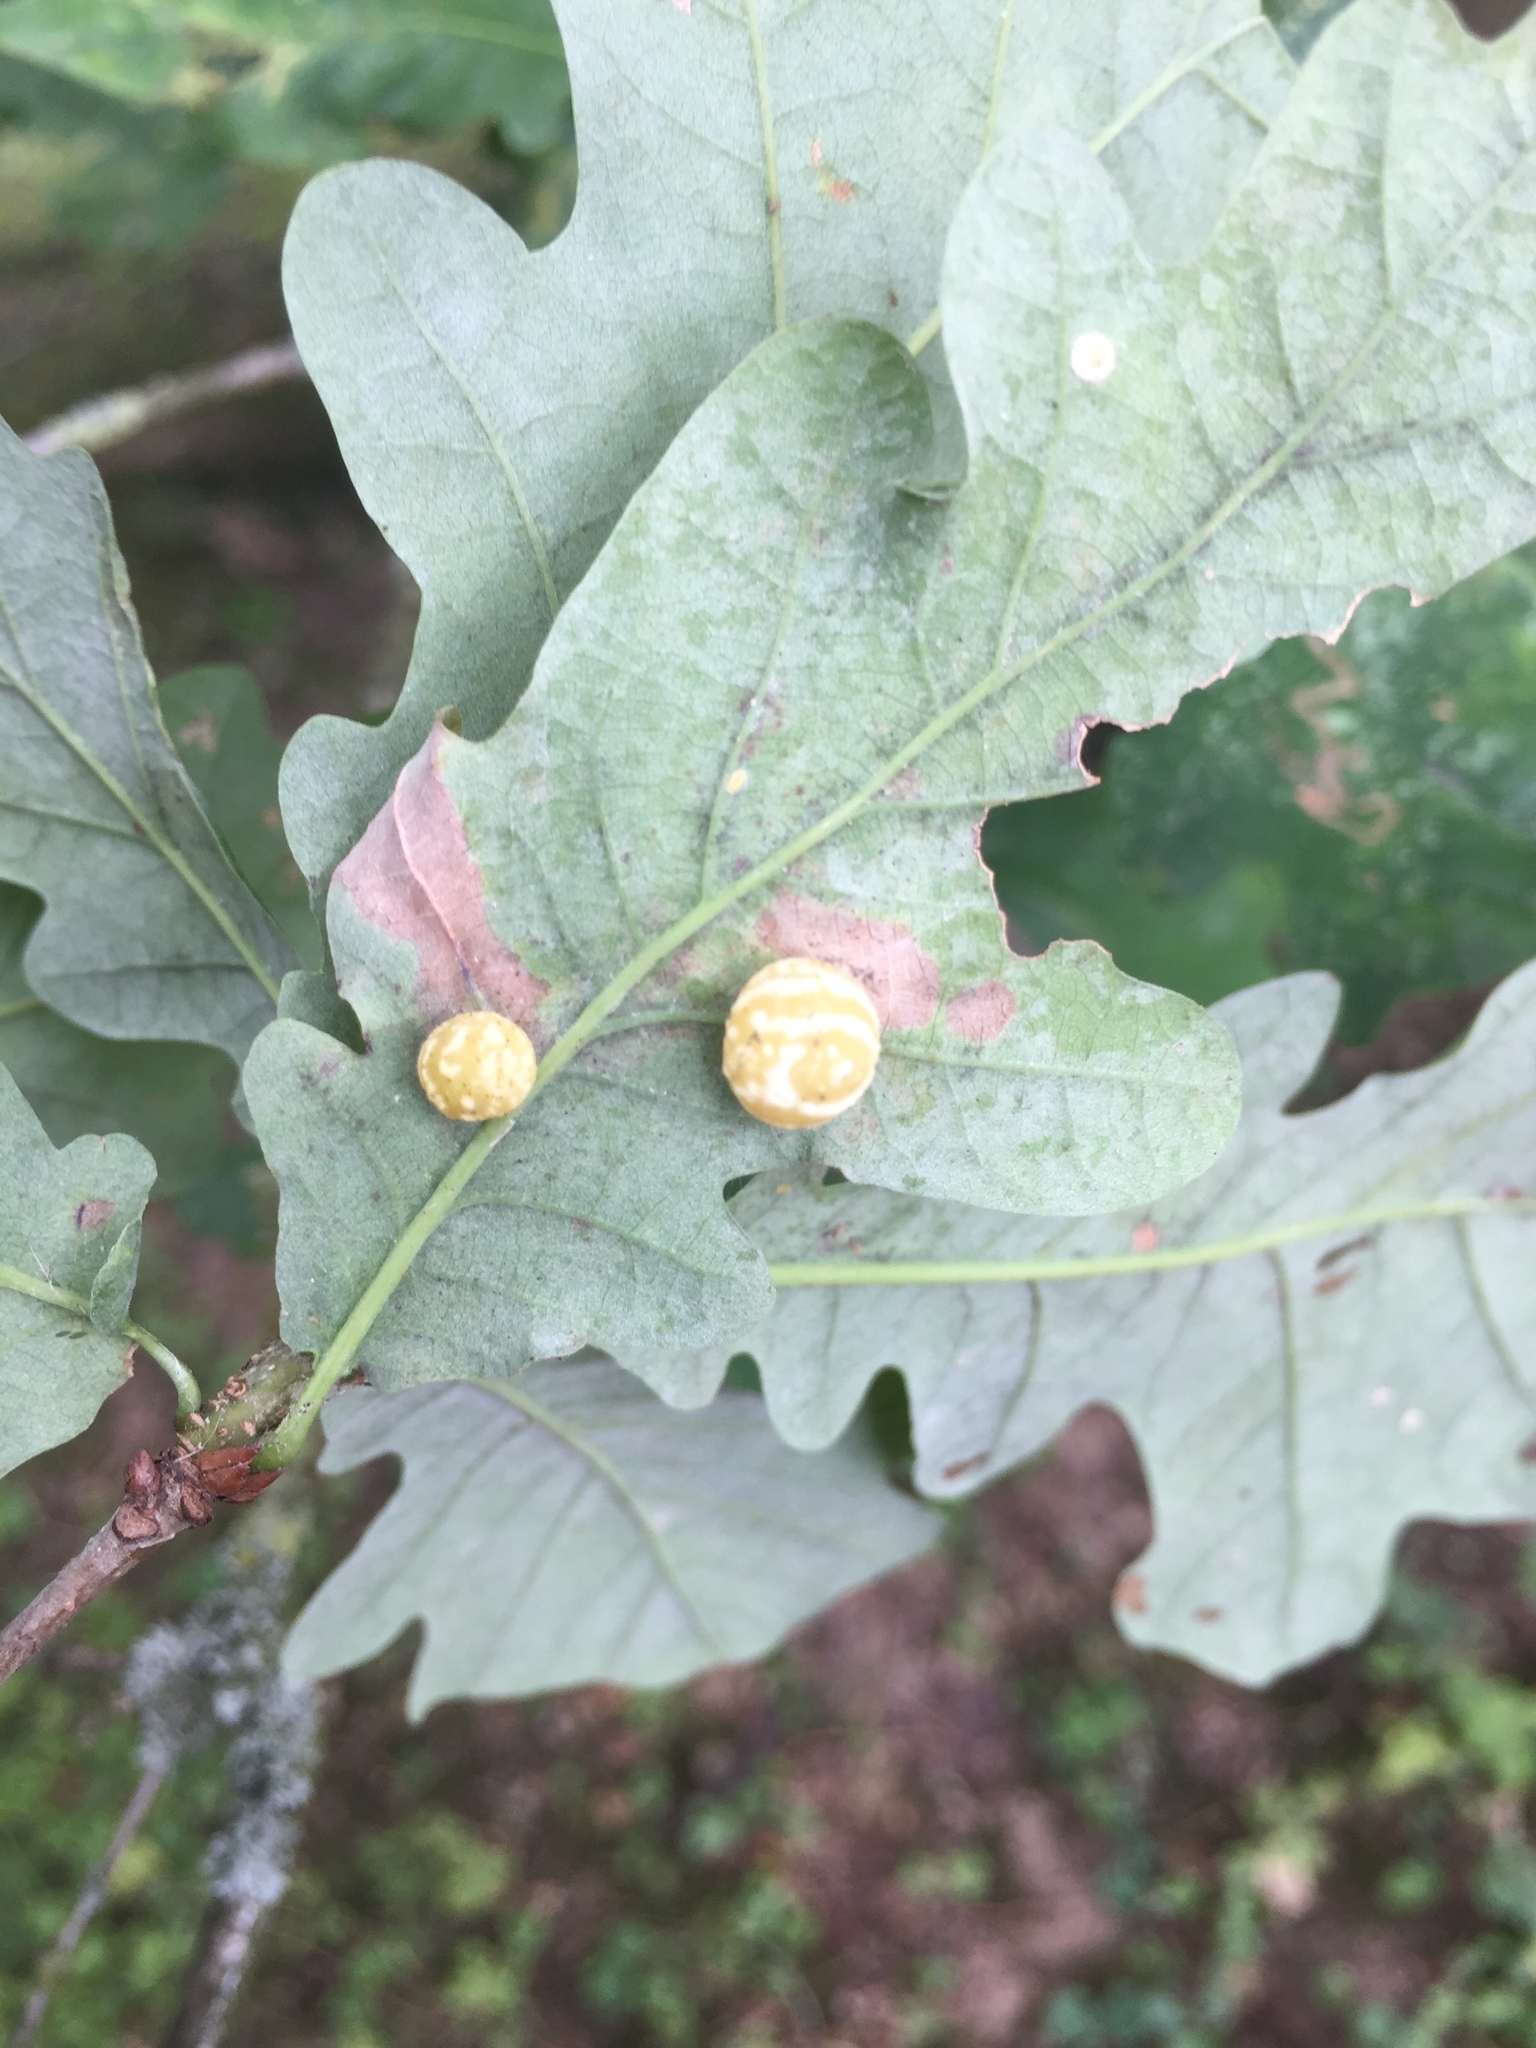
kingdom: Animalia
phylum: Arthropoda
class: Insecta
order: Hymenoptera
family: Cynipidae
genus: Cynips
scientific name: Cynips longiventris
